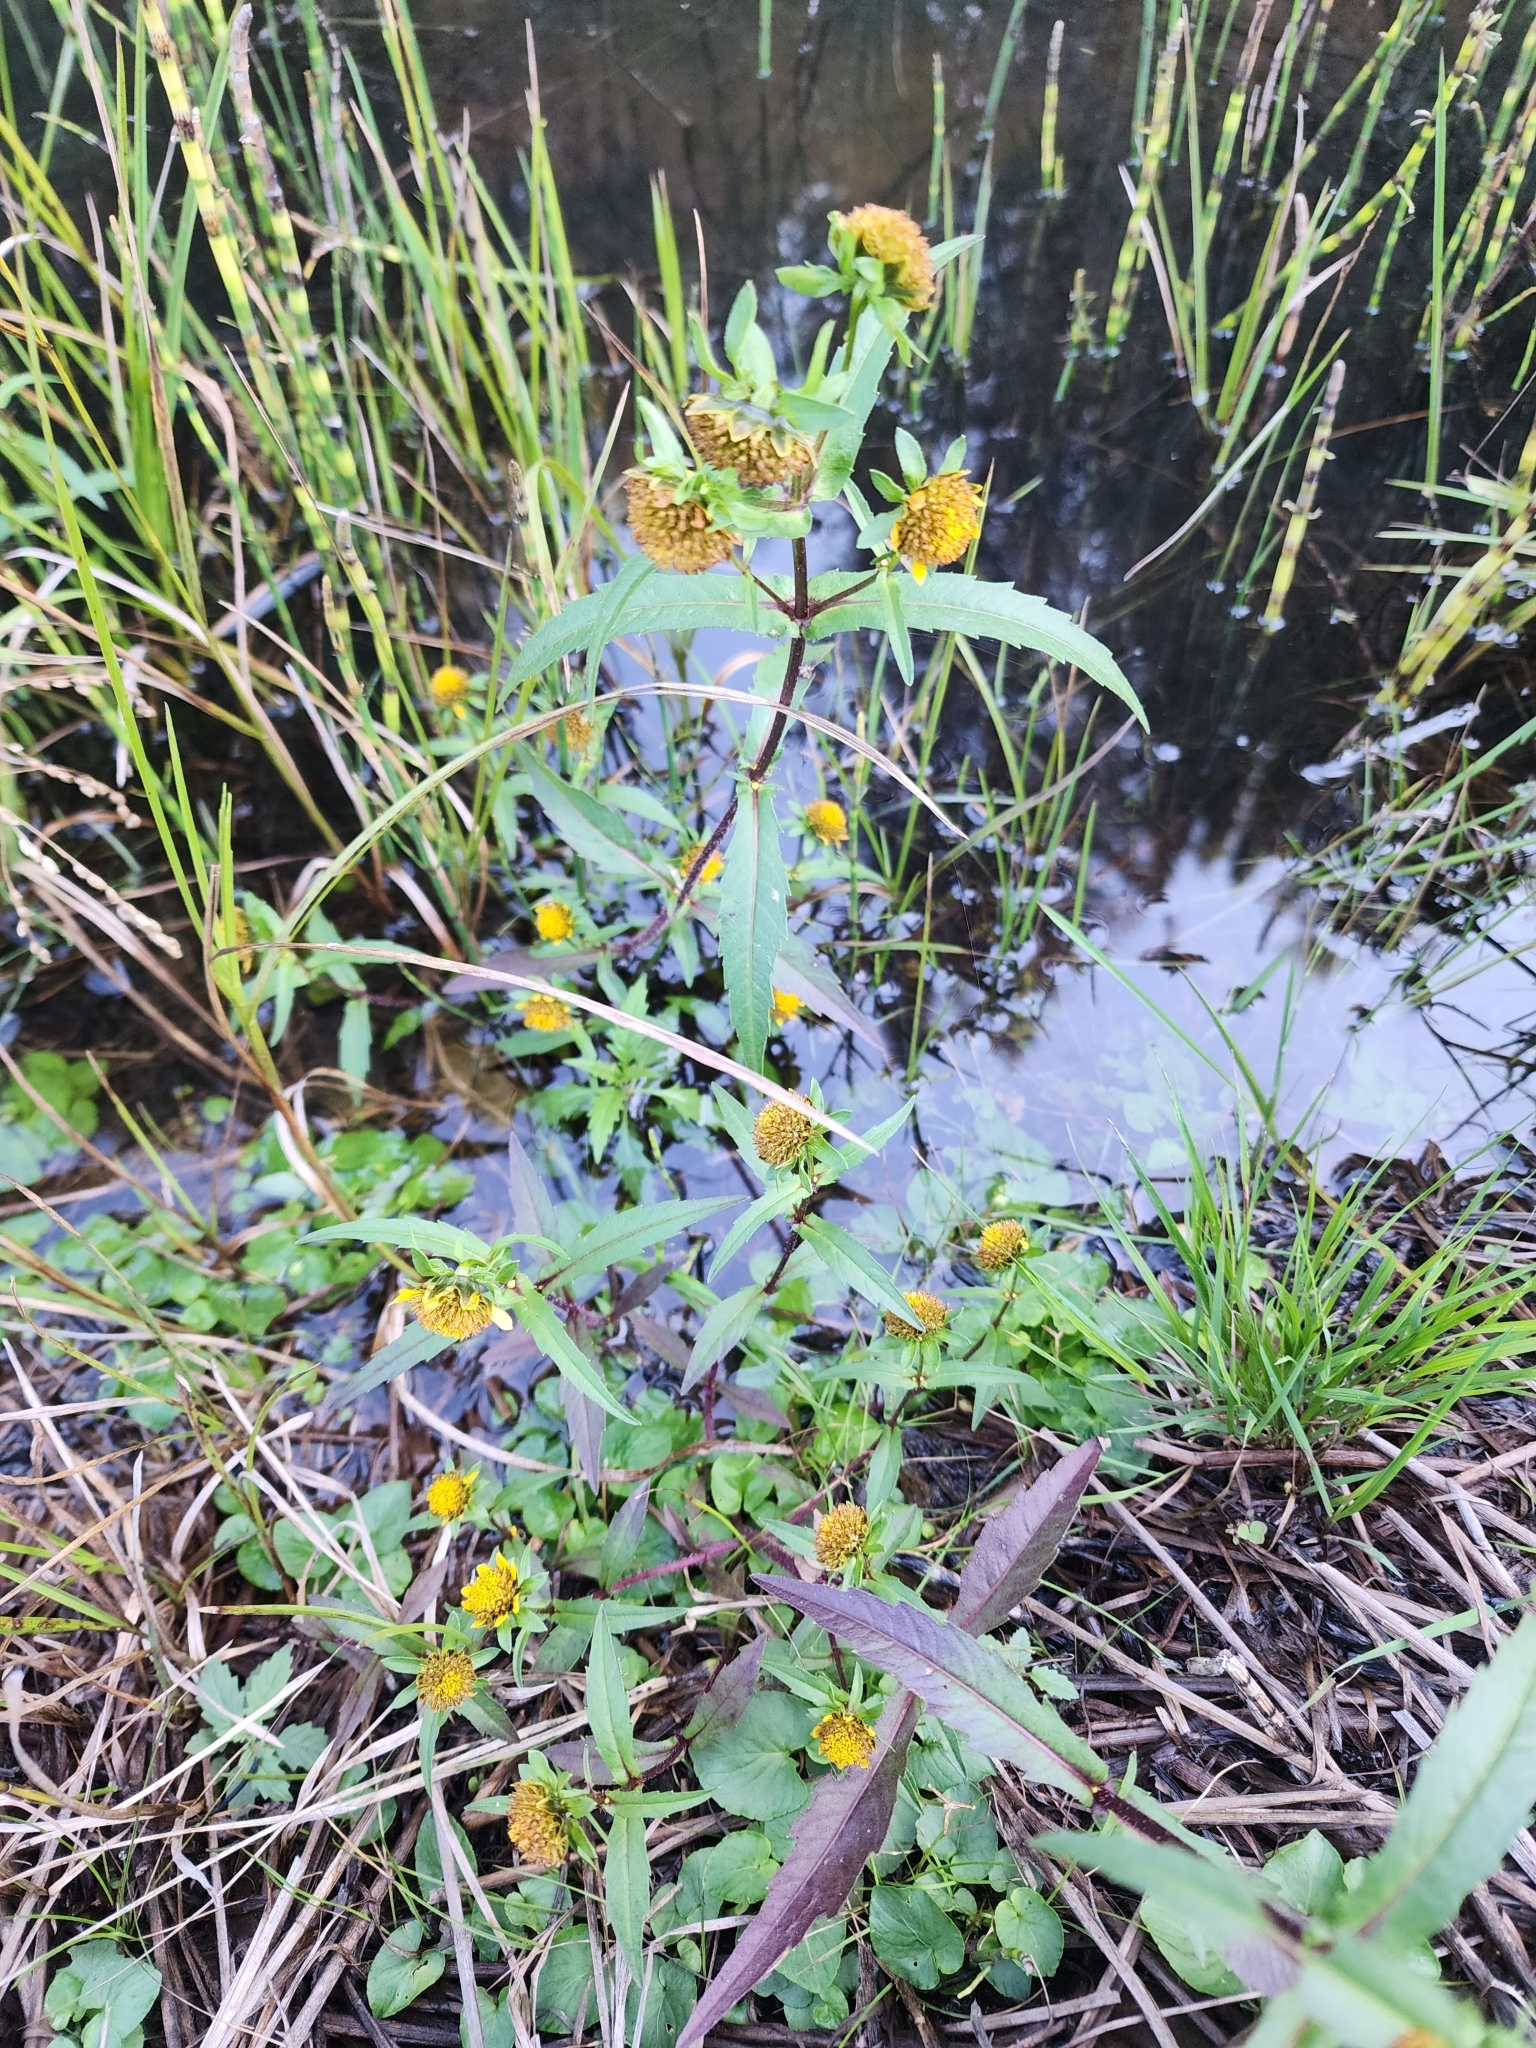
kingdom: Plantae
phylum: Tracheophyta
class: Magnoliopsida
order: Asterales
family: Asteraceae
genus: Bidens
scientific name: Bidens cernua
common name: Nodding bur-marigold
